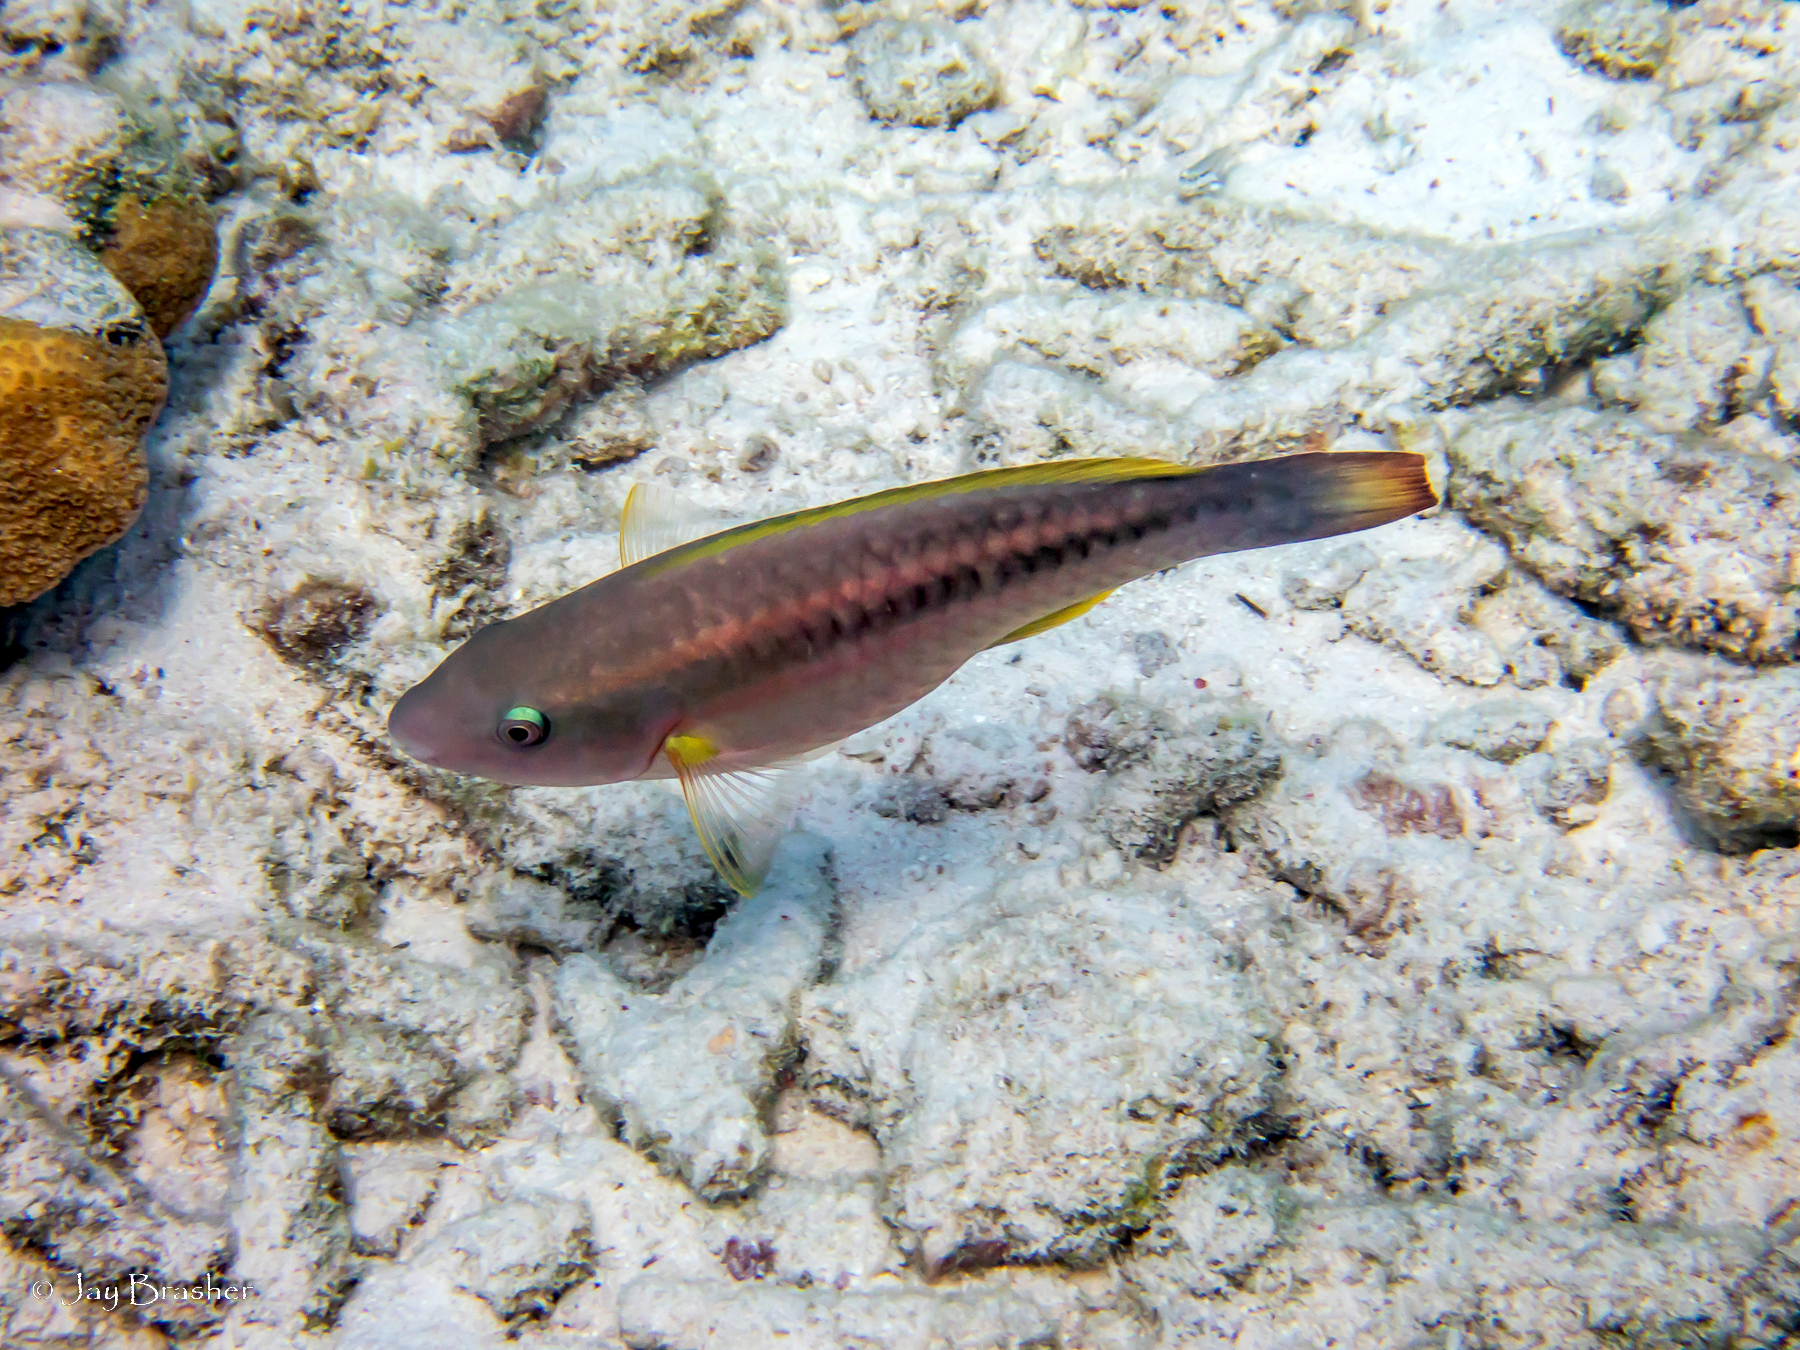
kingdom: Animalia
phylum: Chordata
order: Perciformes
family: Scaridae
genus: Scarus
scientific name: Scarus taeniopterus
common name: Princess parrotfish
